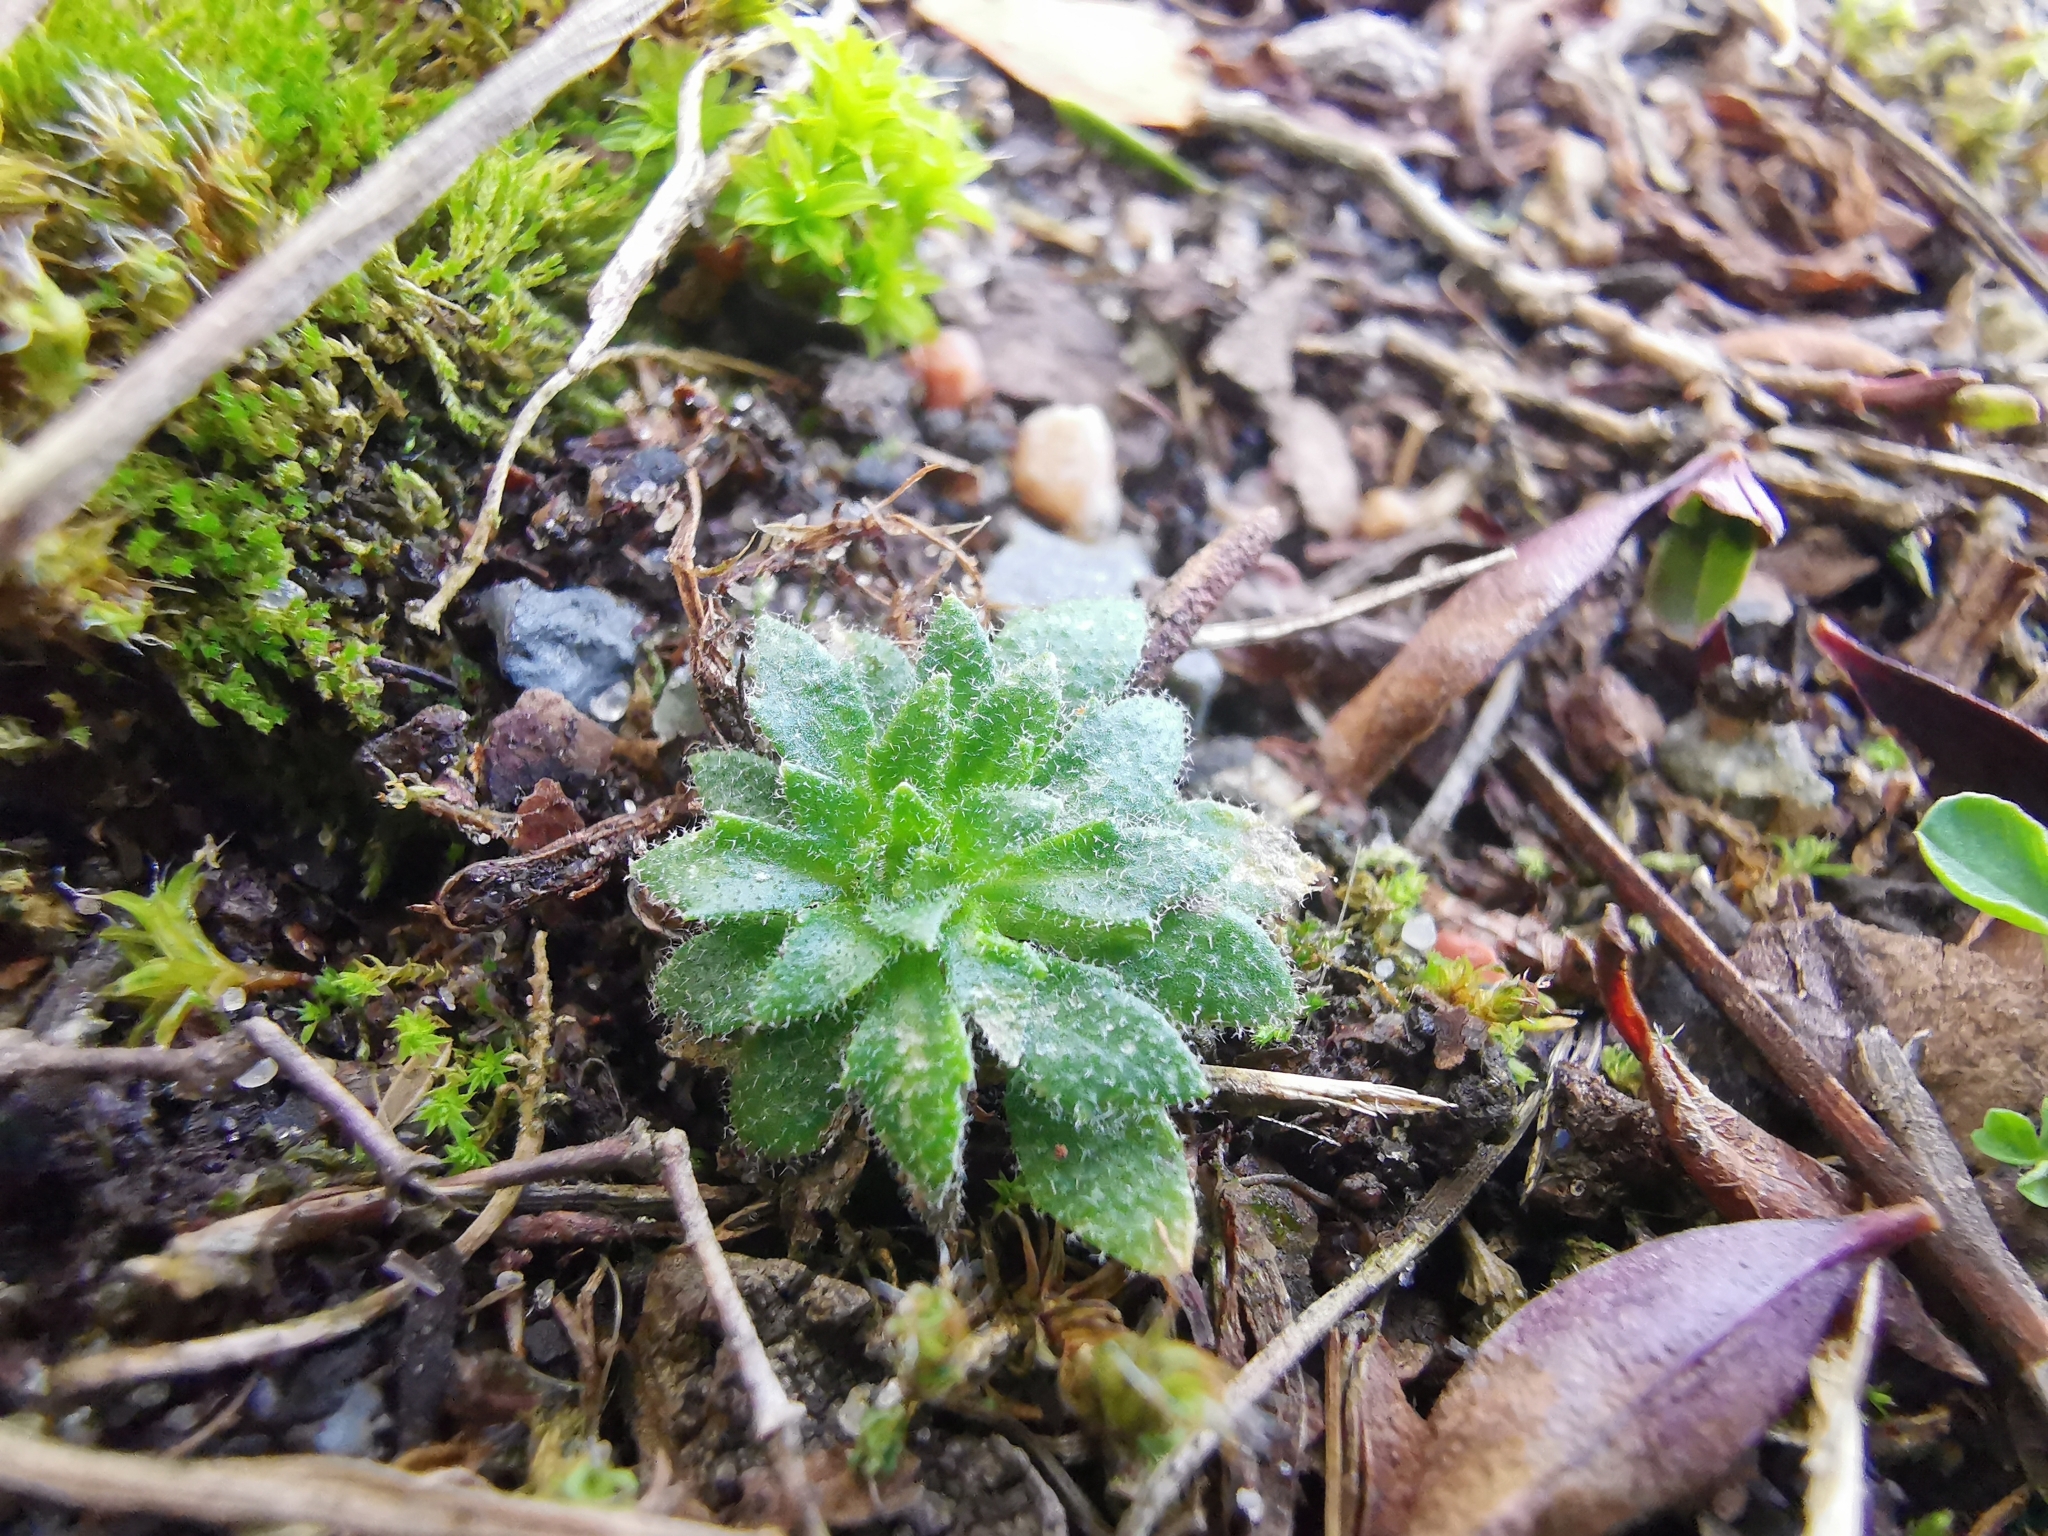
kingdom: Plantae
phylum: Tracheophyta
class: Magnoliopsida
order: Brassicales
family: Brassicaceae
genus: Draba
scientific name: Draba verna
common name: Spring draba
